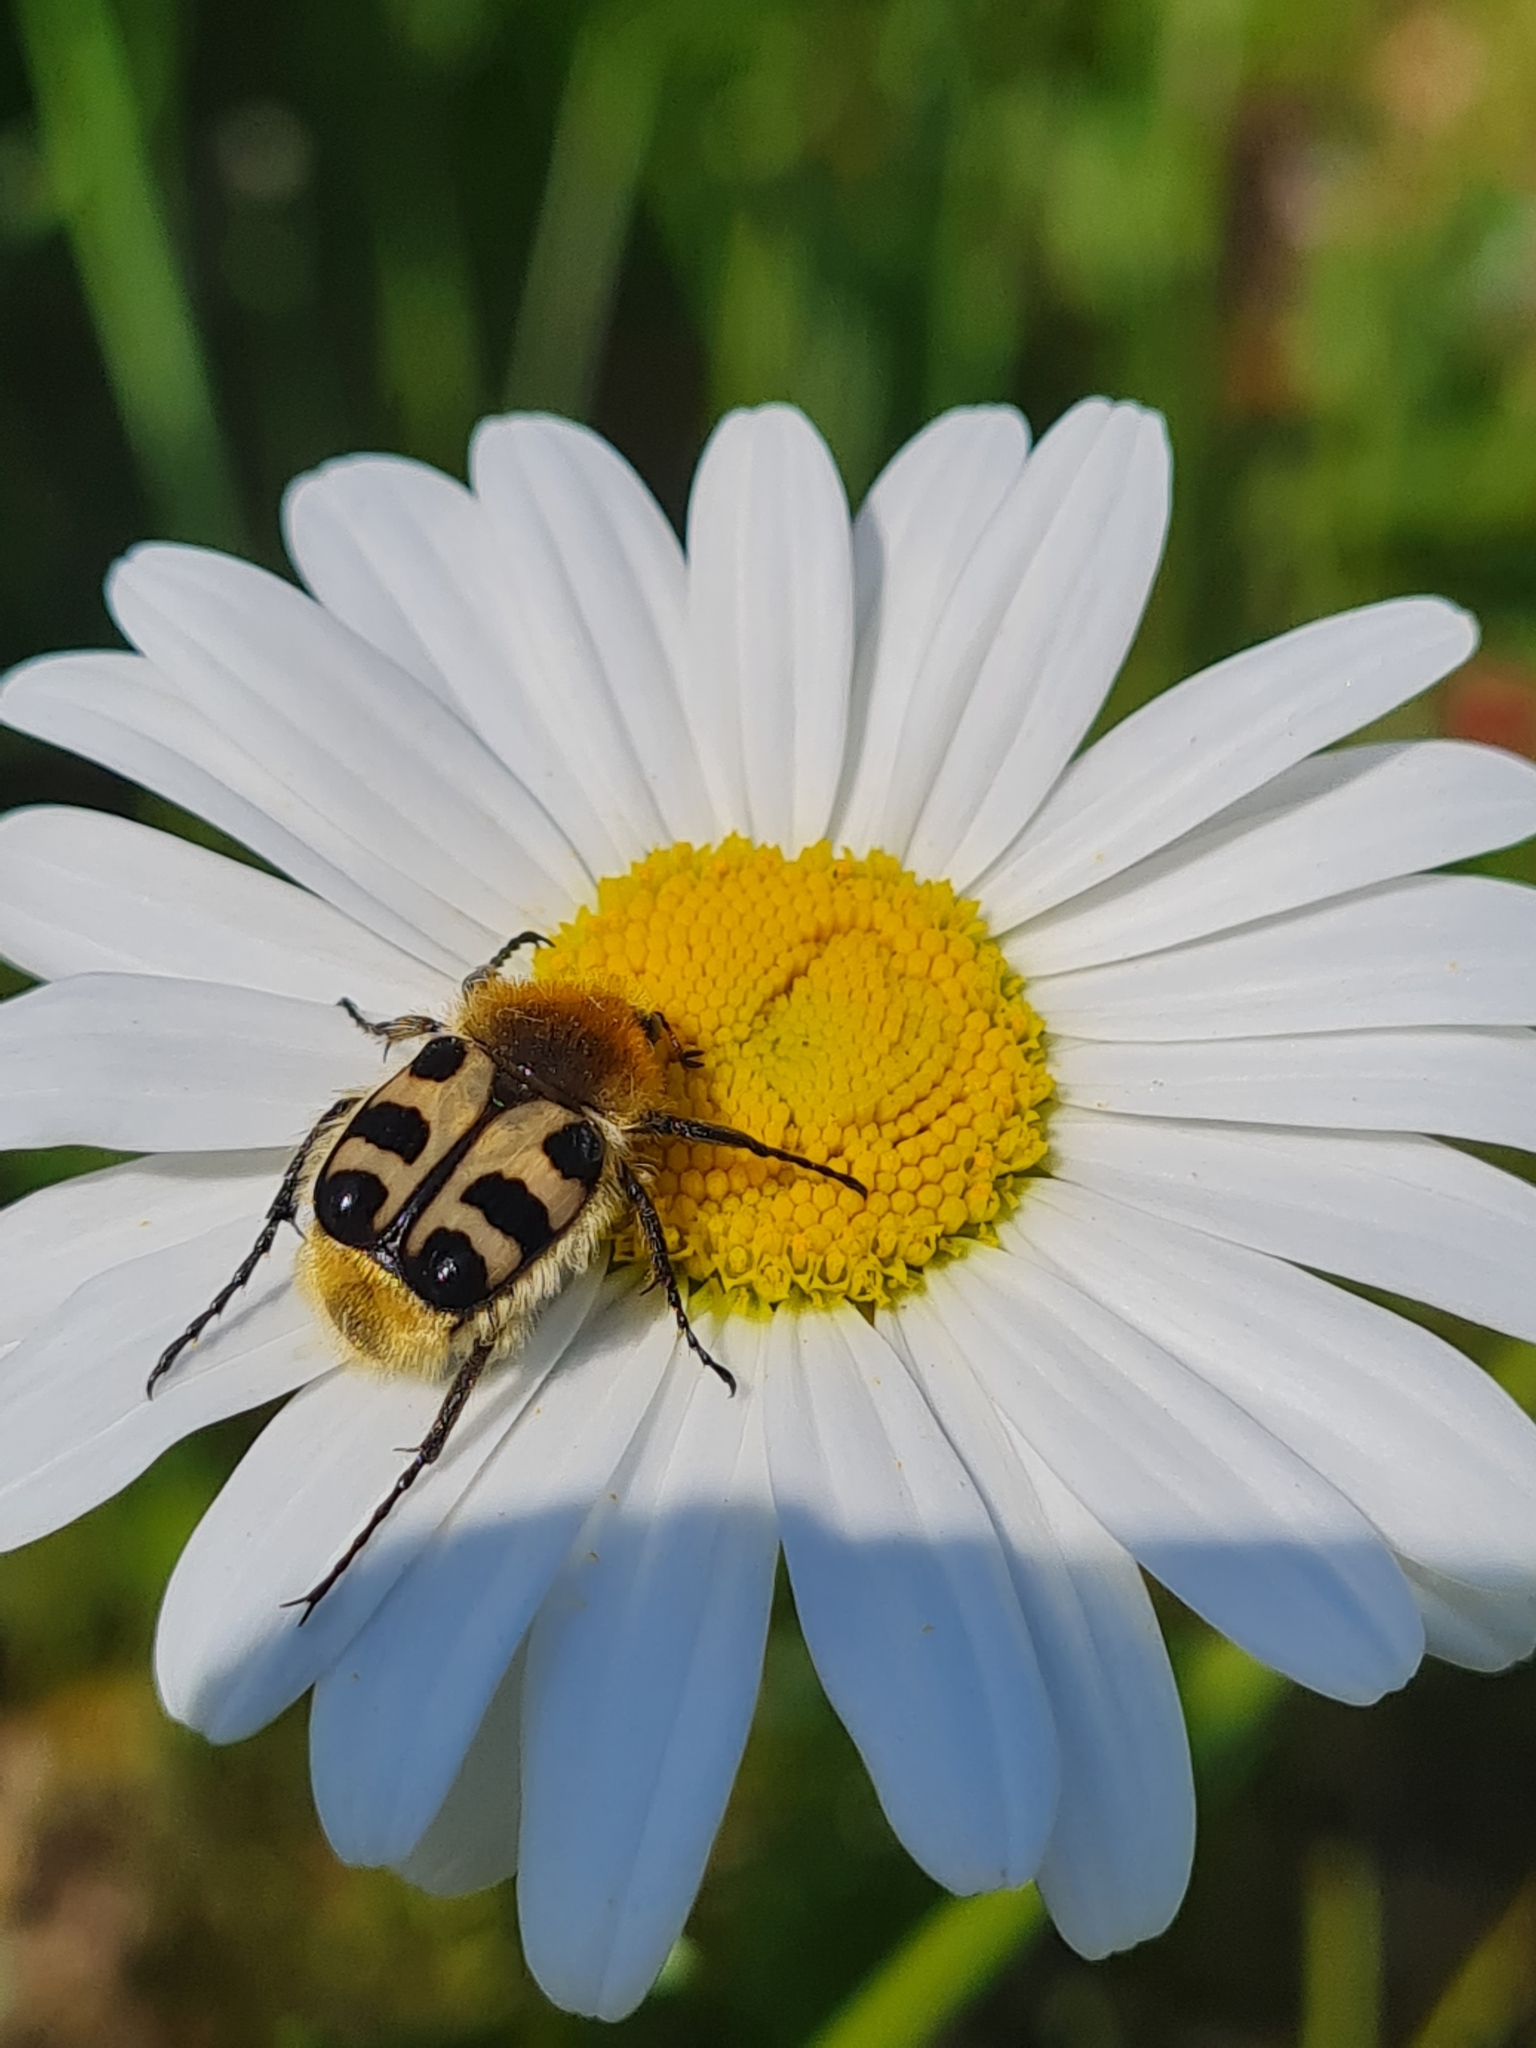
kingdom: Animalia
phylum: Arthropoda
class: Insecta
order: Coleoptera
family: Scarabaeidae
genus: Trichius
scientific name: Trichius gallicus
